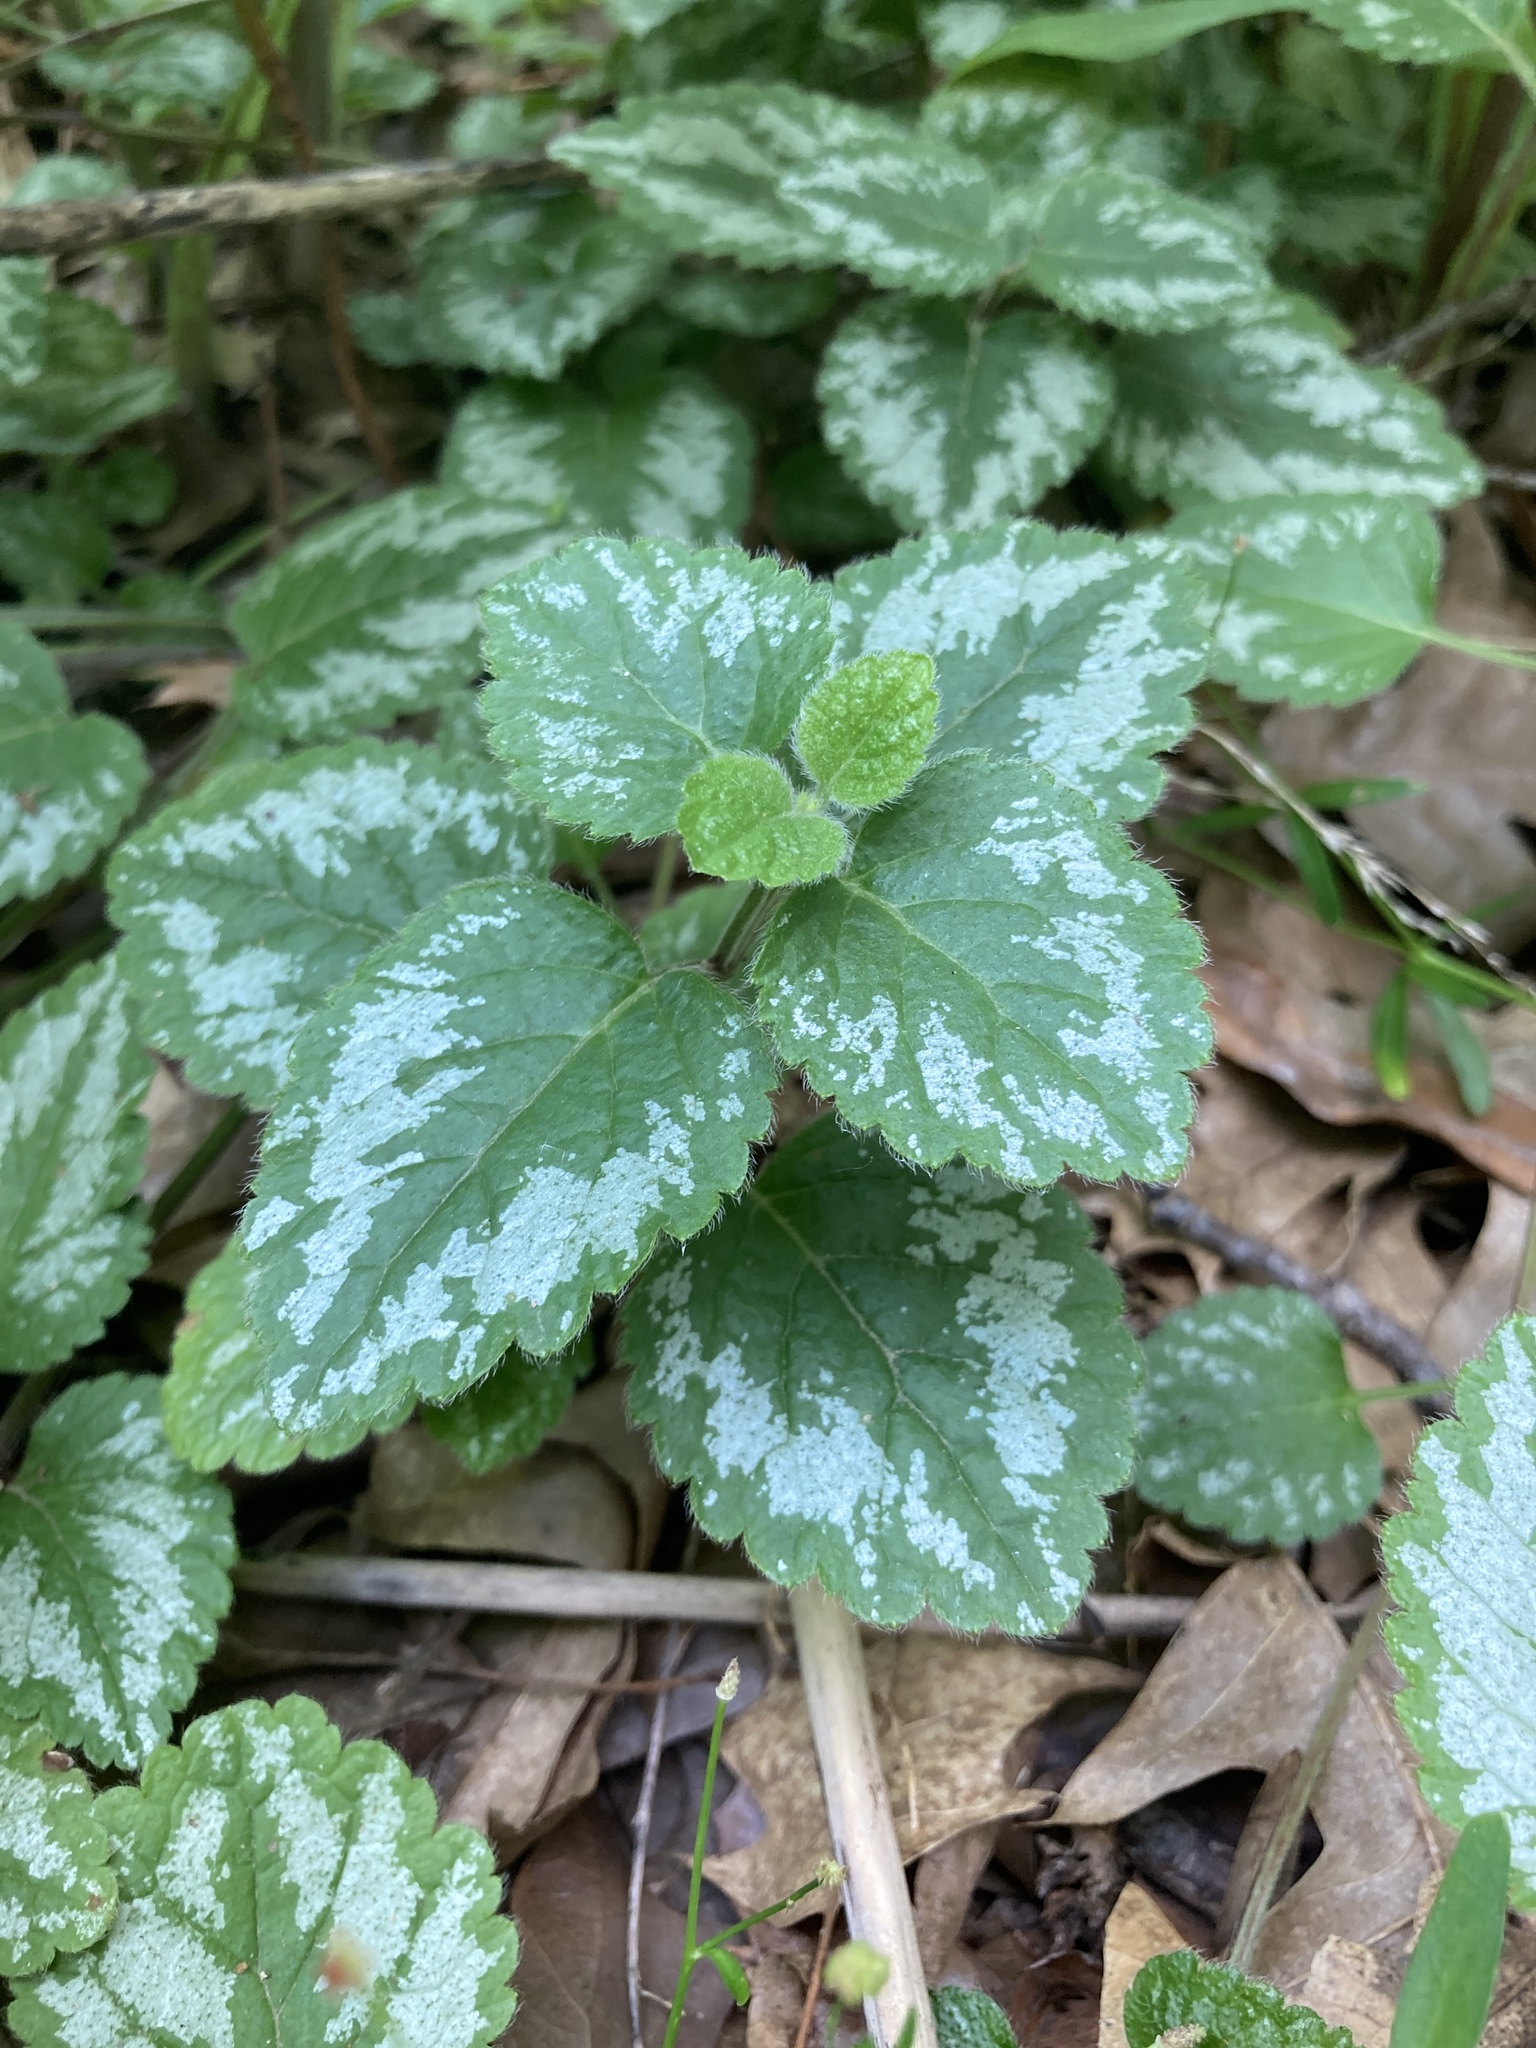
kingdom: Plantae
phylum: Tracheophyta
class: Magnoliopsida
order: Lamiales
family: Lamiaceae
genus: Lamium
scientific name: Lamium galeobdolon
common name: Yellow archangel
